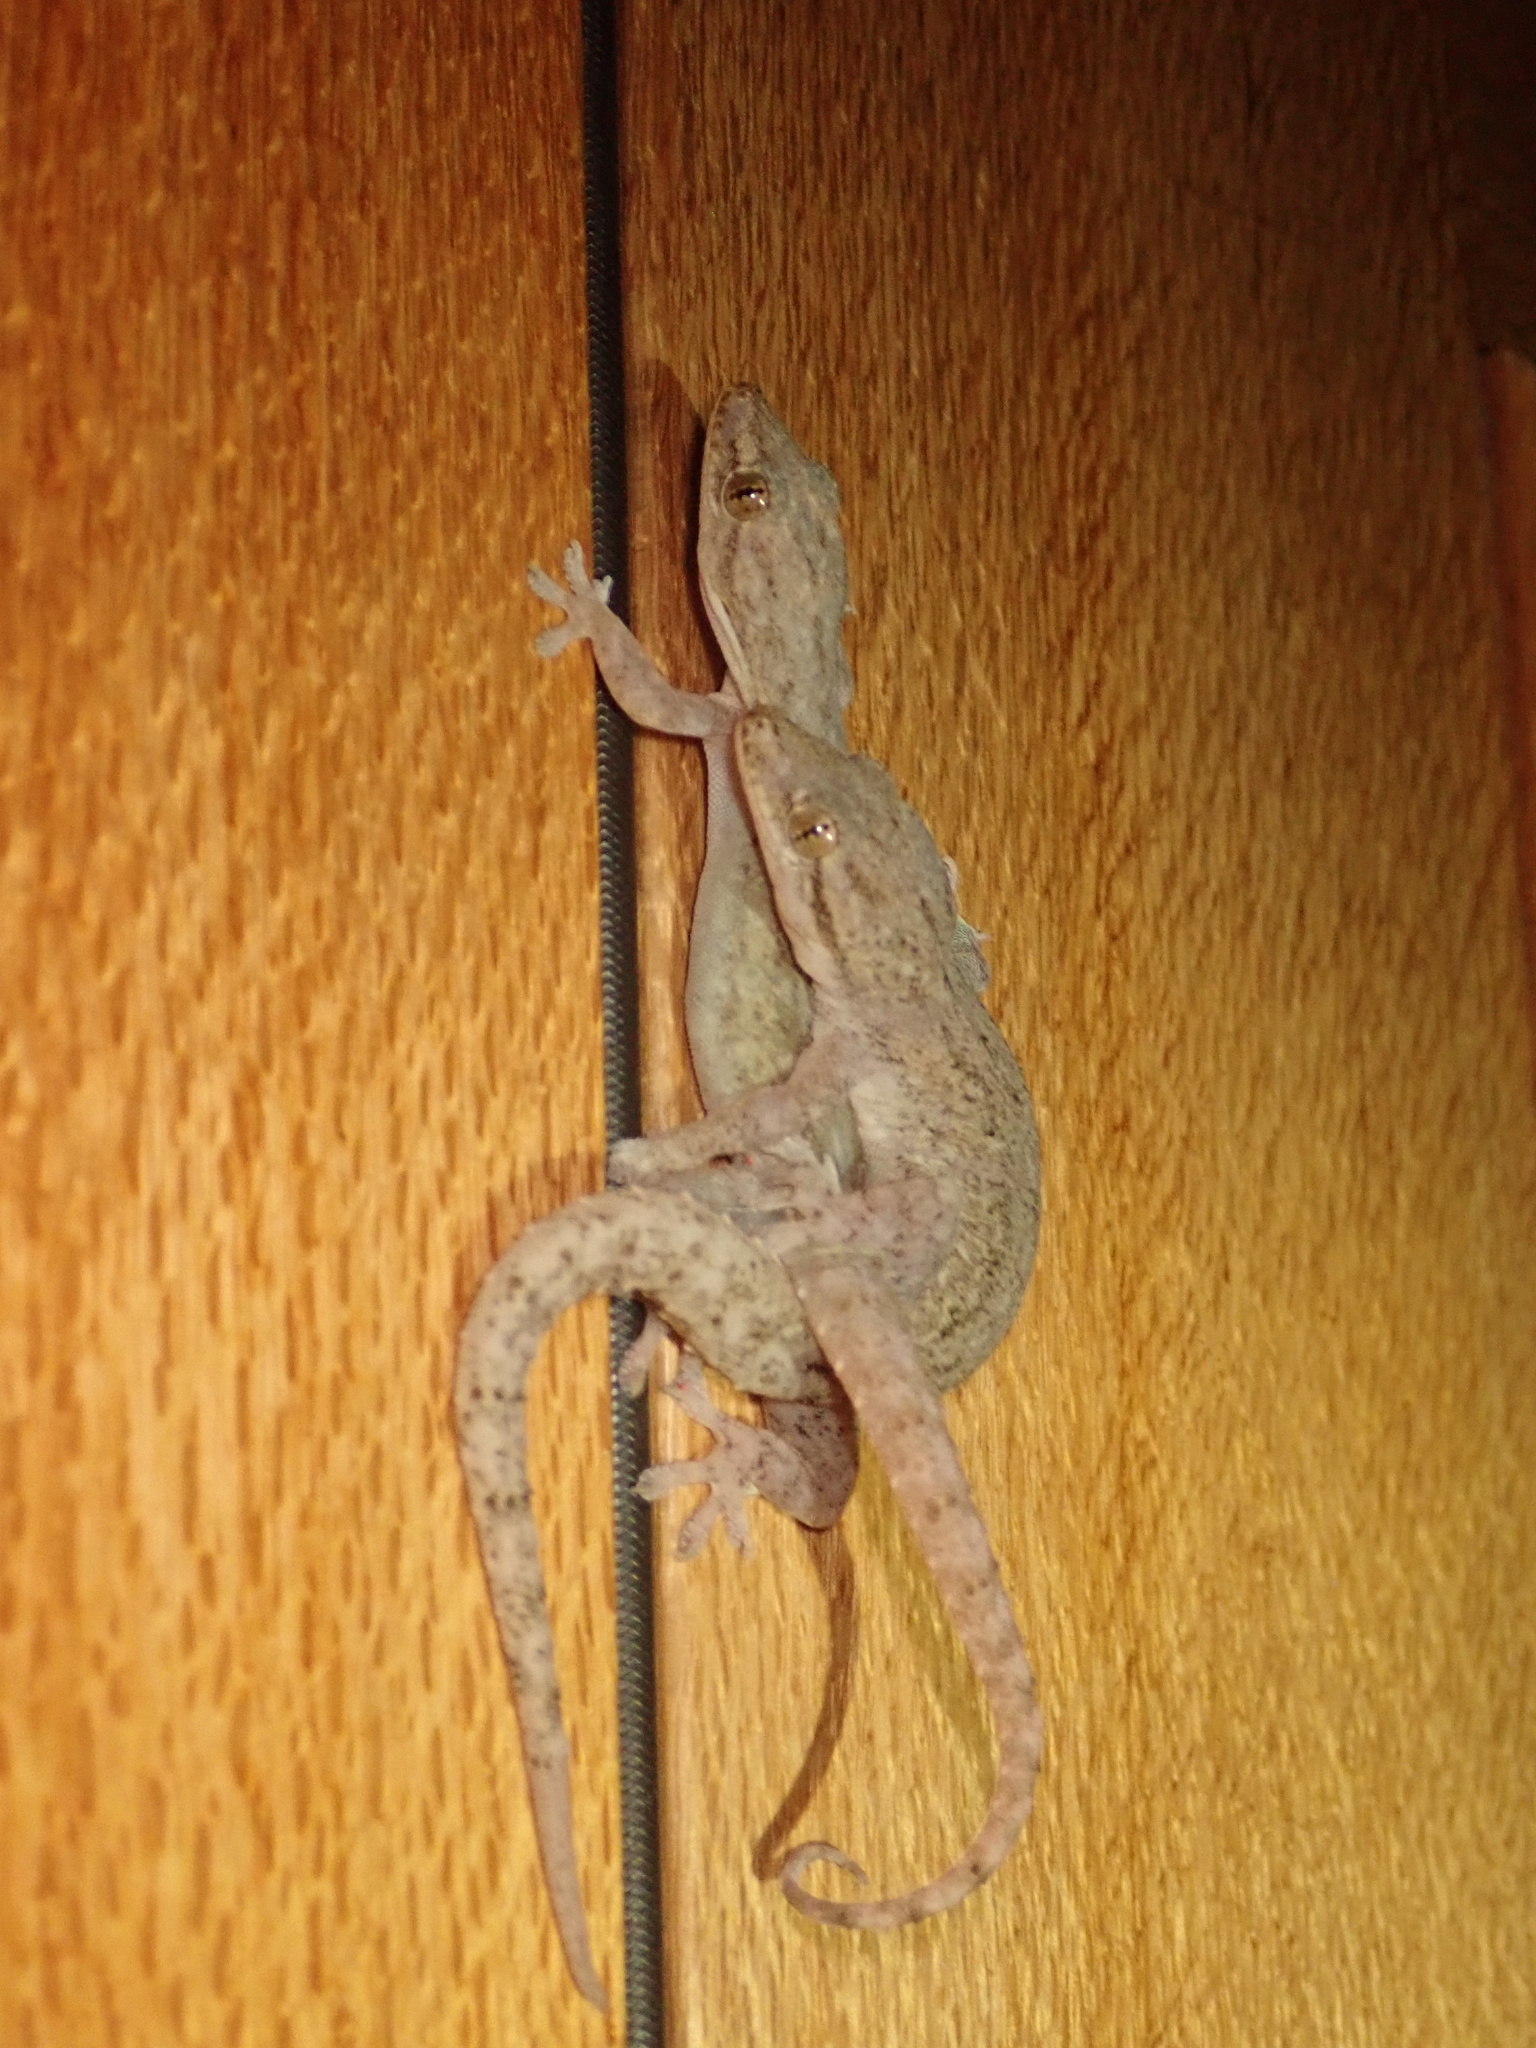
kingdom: Animalia
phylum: Chordata
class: Squamata
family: Gekkonidae
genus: Hemidactylus
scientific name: Hemidactylus frenatus
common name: Common house gecko
